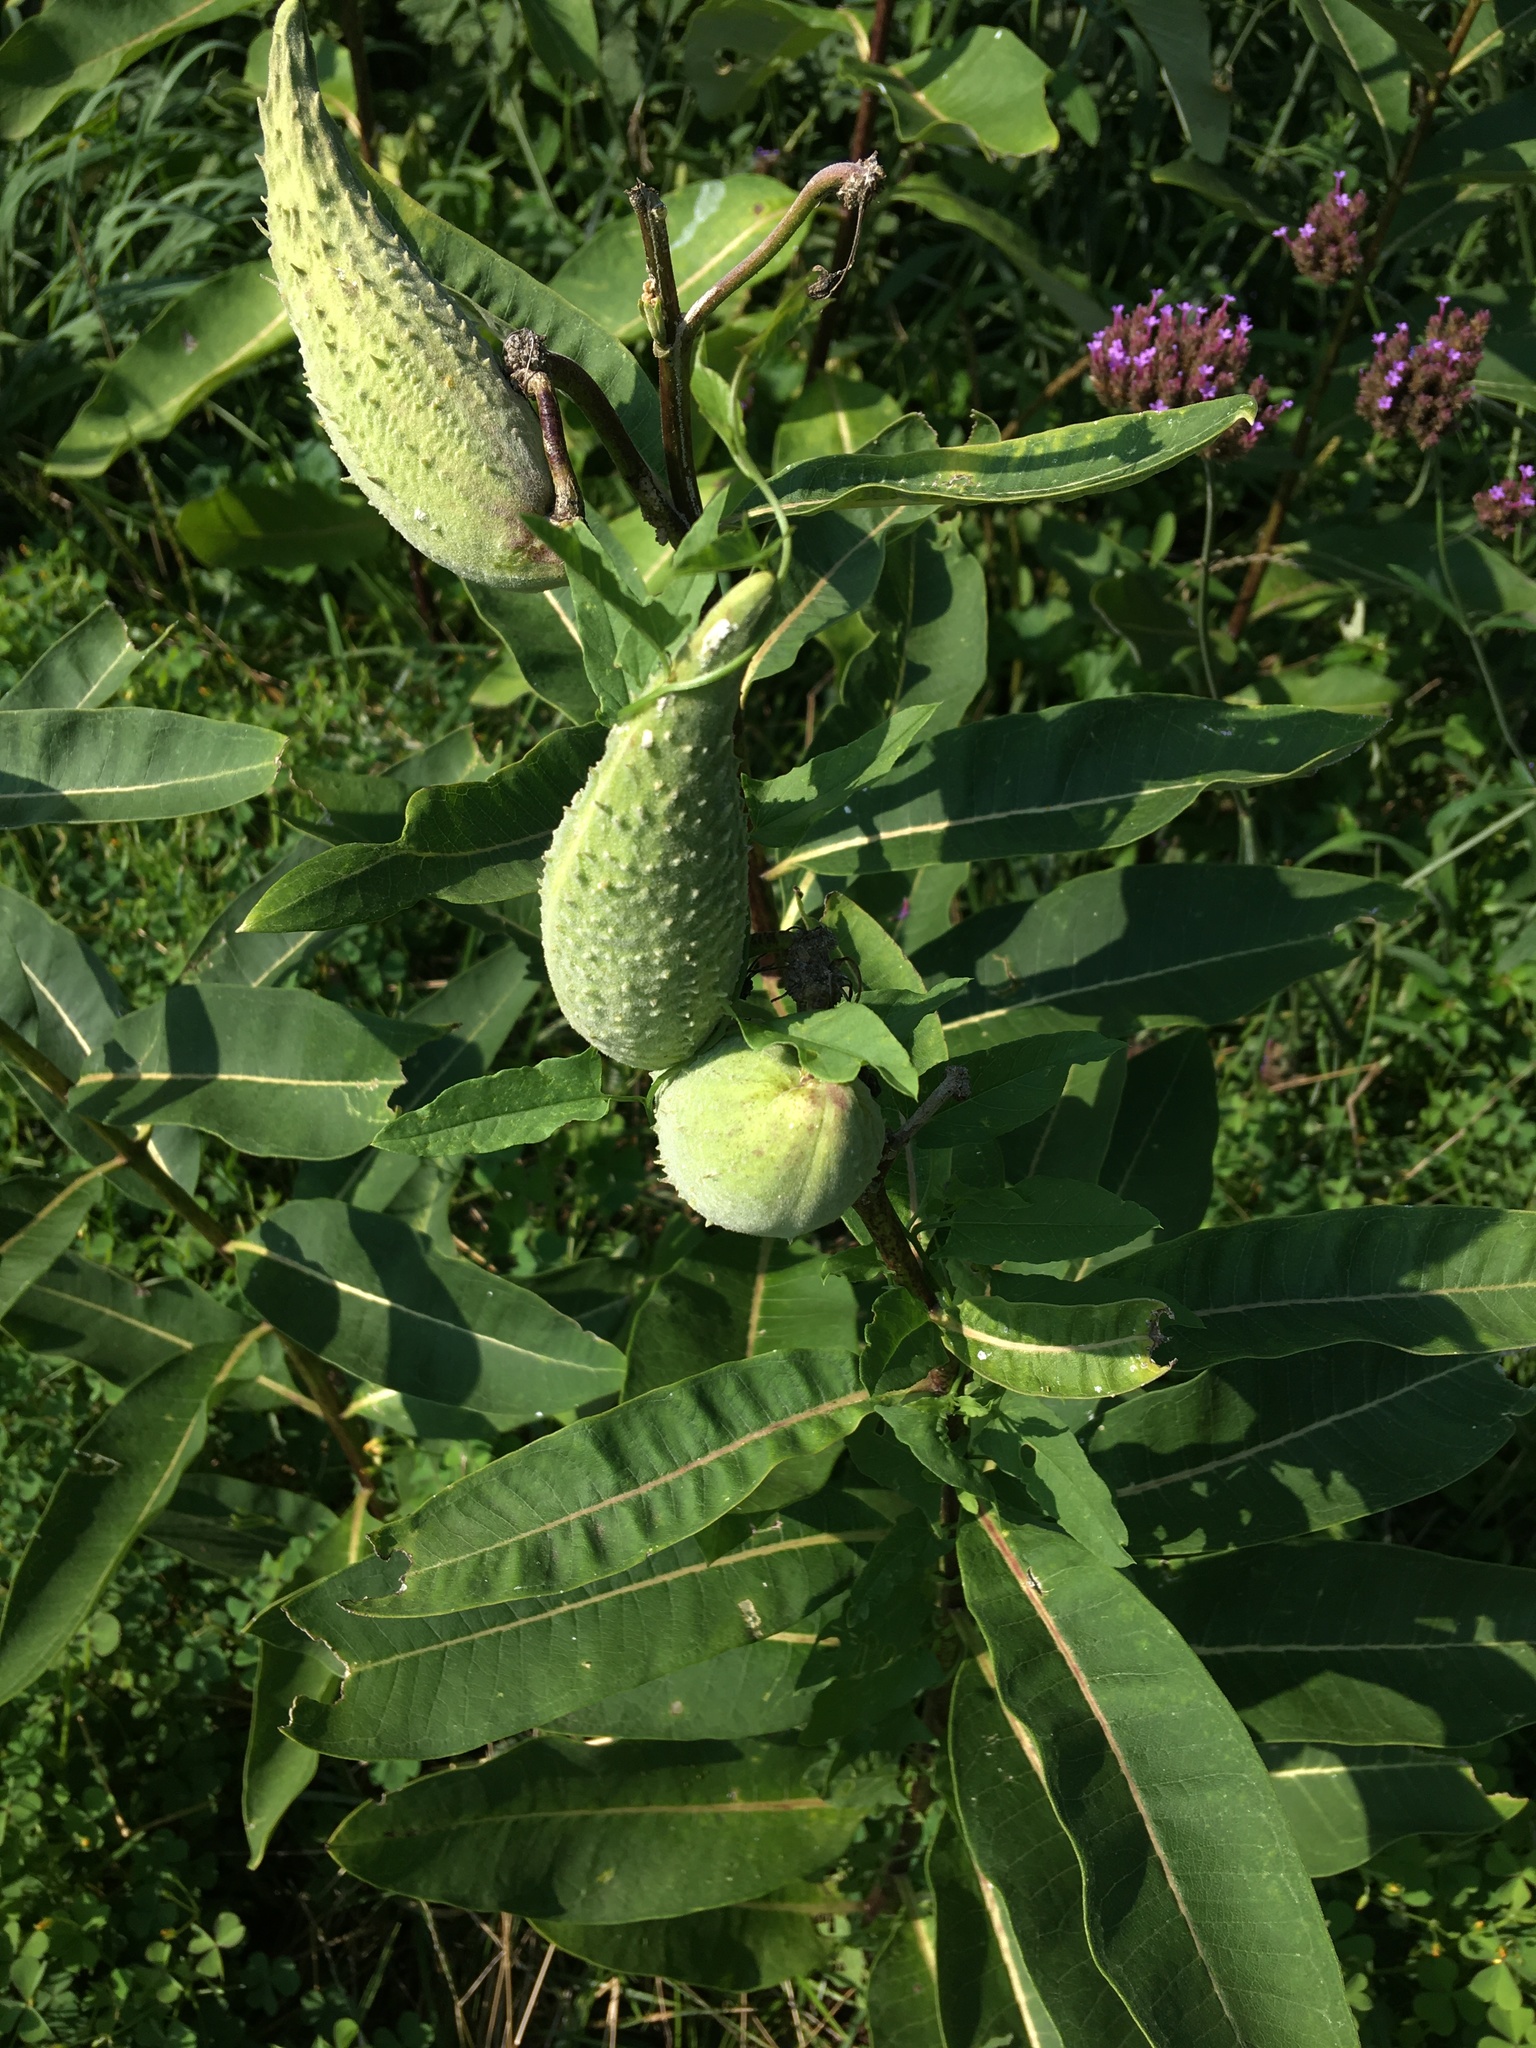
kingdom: Plantae
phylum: Tracheophyta
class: Magnoliopsida
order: Gentianales
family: Apocynaceae
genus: Asclepias
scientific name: Asclepias syriaca
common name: Common milkweed
